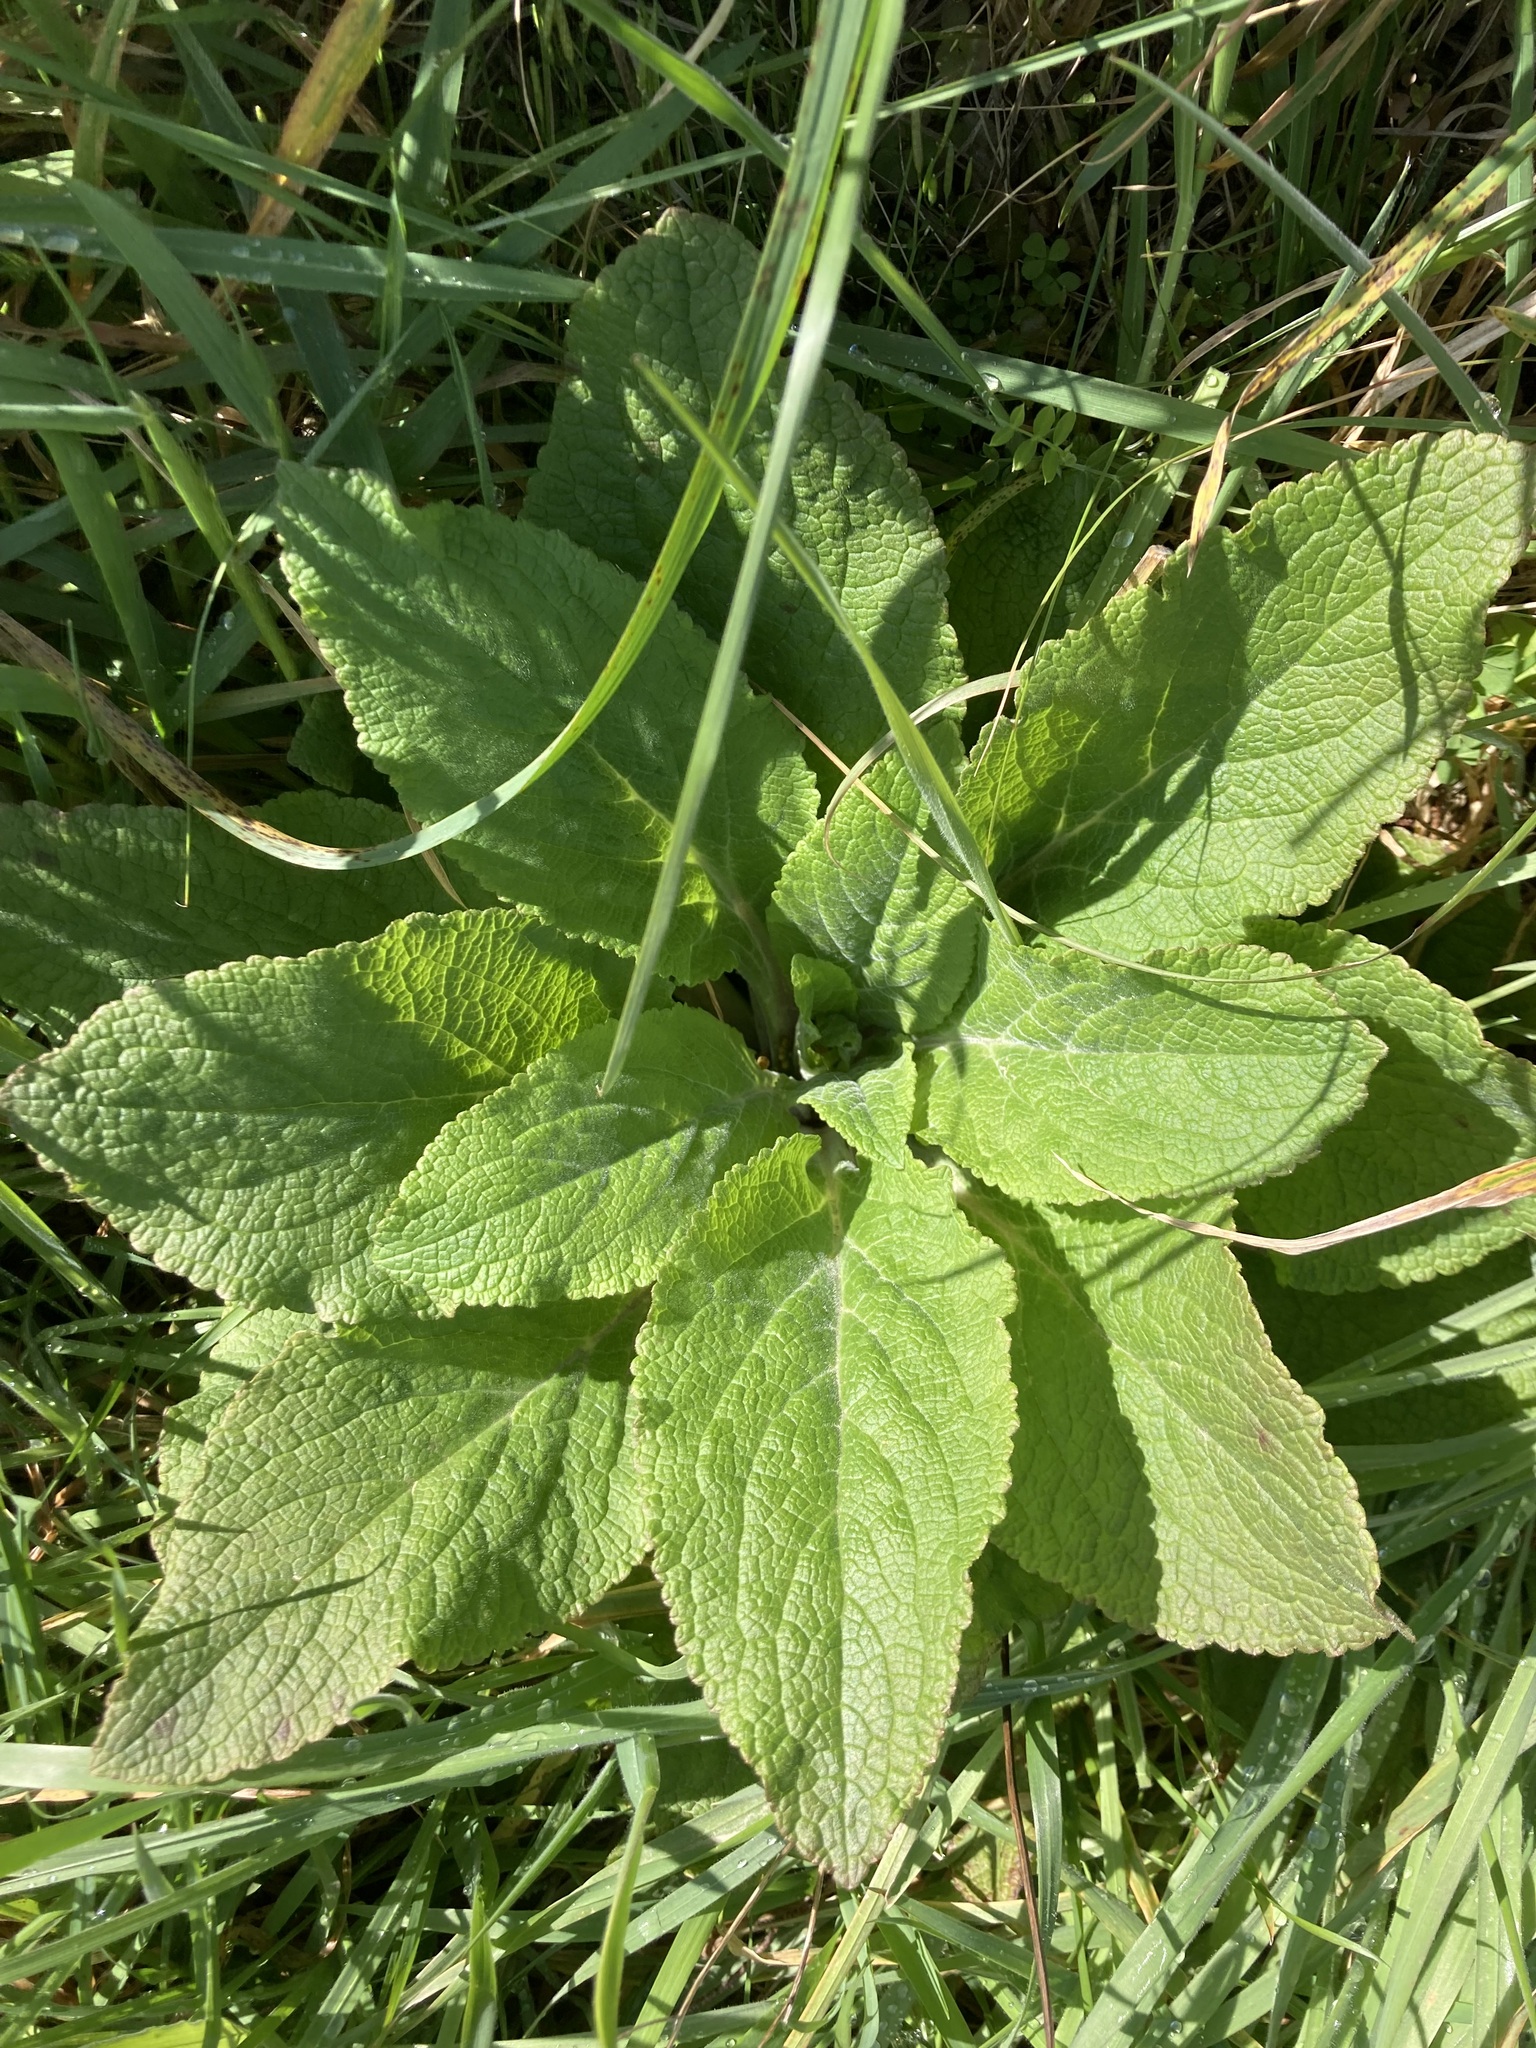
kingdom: Plantae
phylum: Tracheophyta
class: Magnoliopsida
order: Lamiales
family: Plantaginaceae
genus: Digitalis
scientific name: Digitalis purpurea
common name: Foxglove
